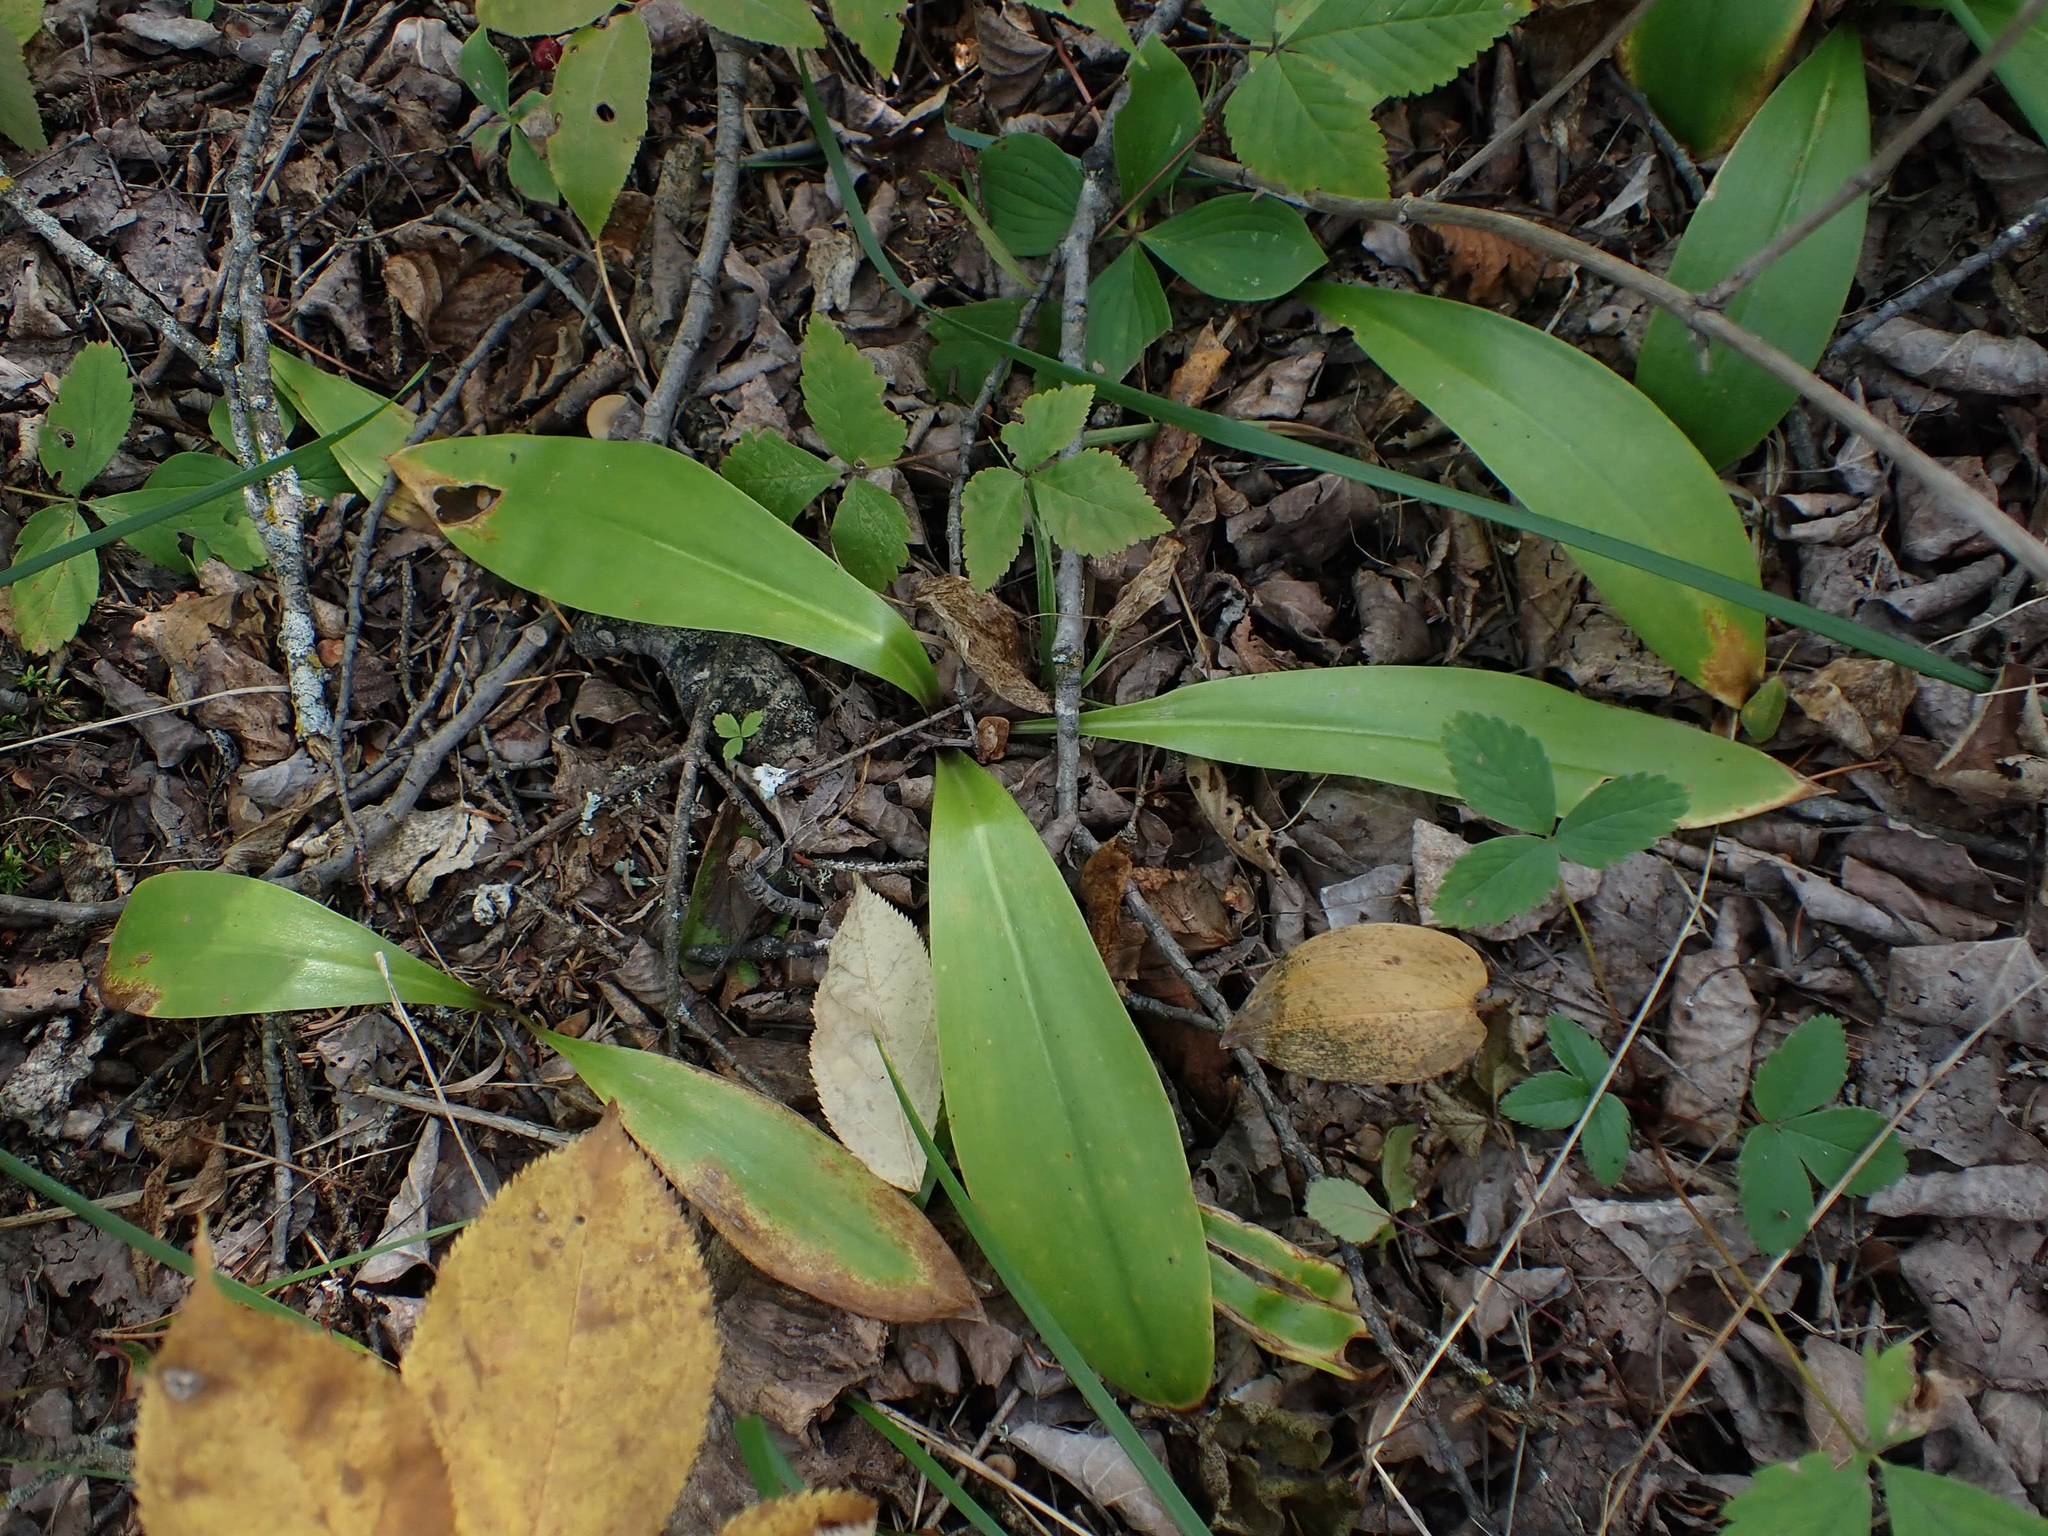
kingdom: Plantae
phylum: Tracheophyta
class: Liliopsida
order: Liliales
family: Liliaceae
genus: Clintonia
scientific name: Clintonia borealis
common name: Yellow clintonia
